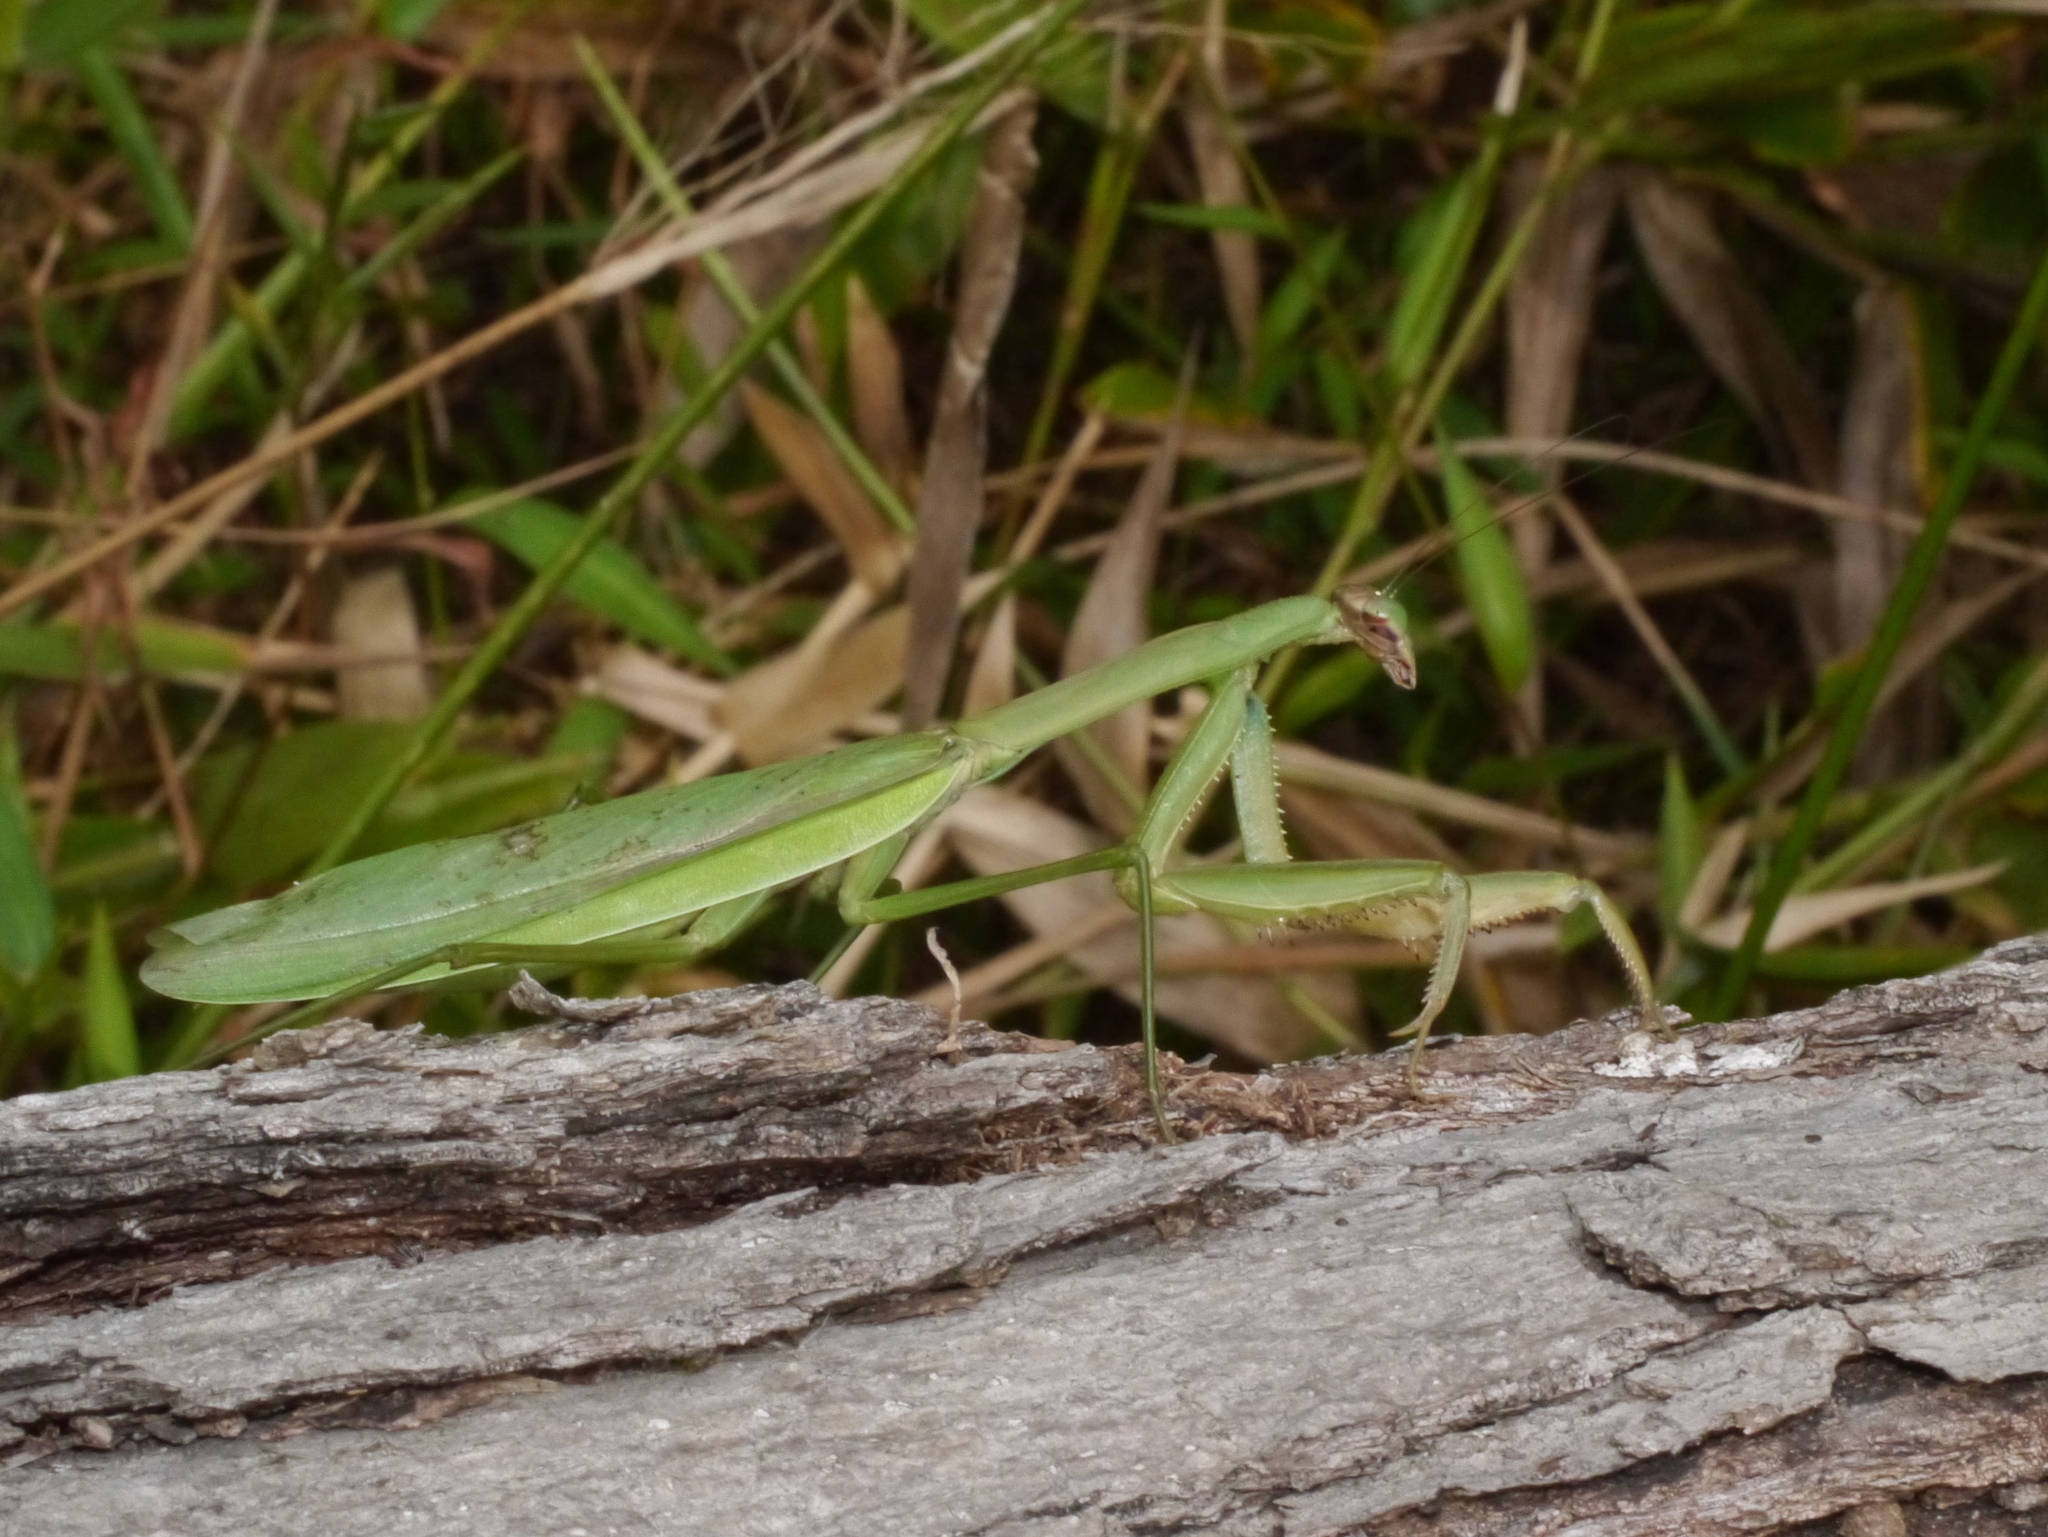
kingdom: Animalia
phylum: Arthropoda
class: Insecta
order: Mantodea
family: Mantidae
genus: Tenodera
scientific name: Tenodera sinensis
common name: Chinese mantis
